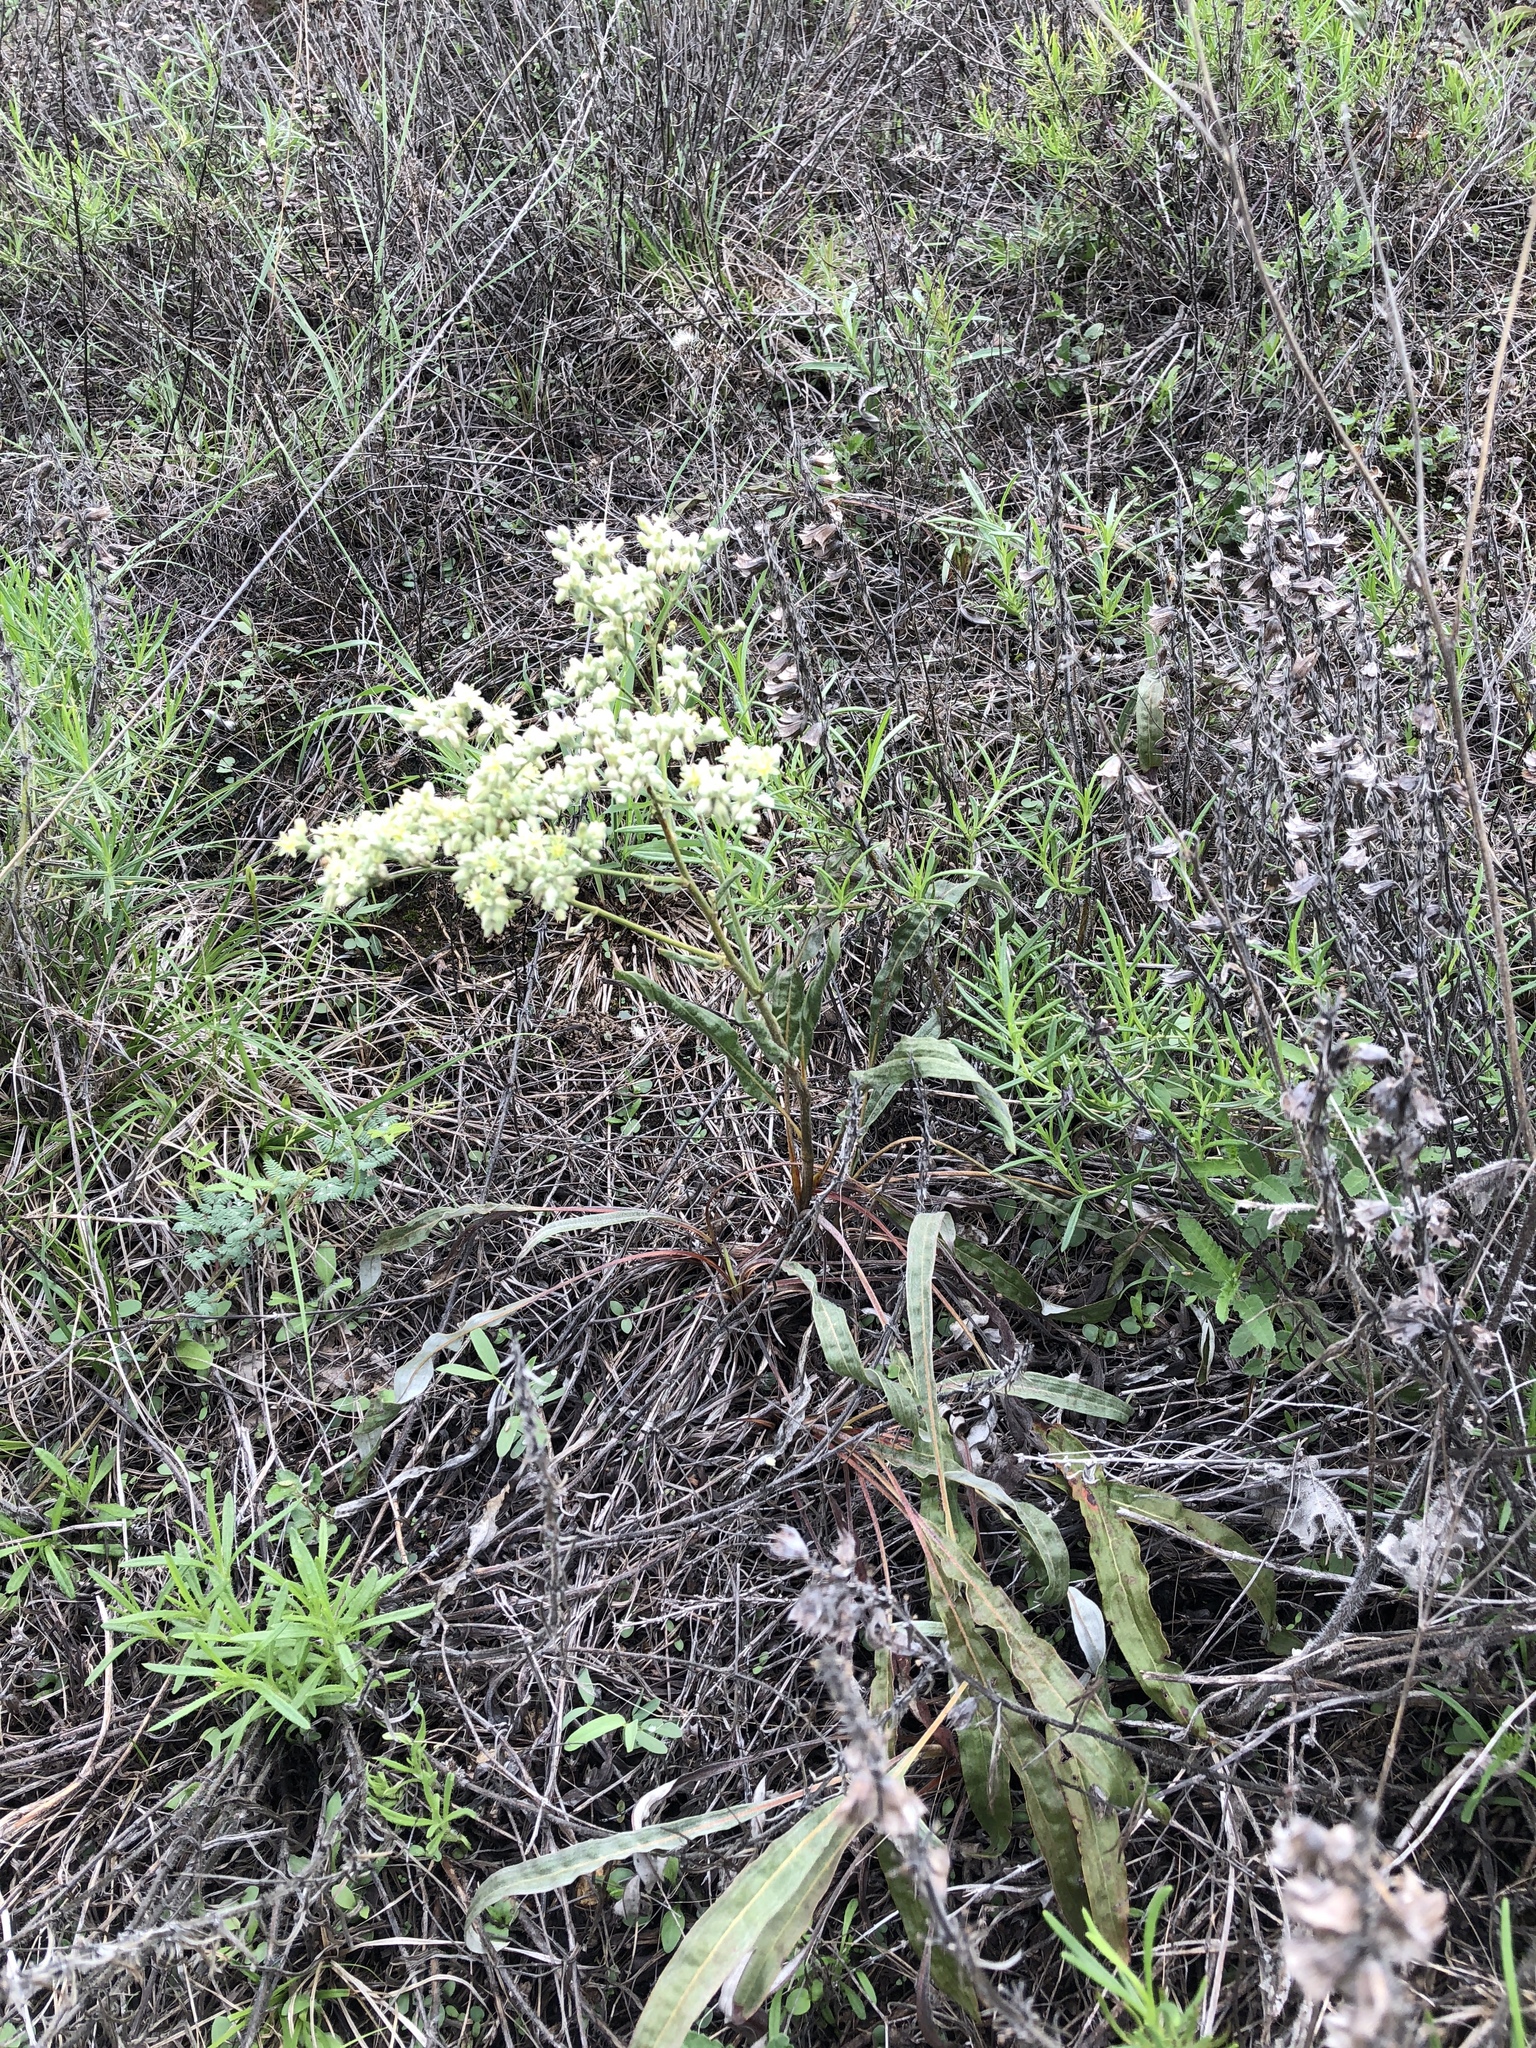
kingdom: Plantae
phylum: Tracheophyta
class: Magnoliopsida
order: Caryophyllales
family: Polygonaceae
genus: Eriogonum
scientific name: Eriogonum longifolium
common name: Longleaf wild buckwheat
